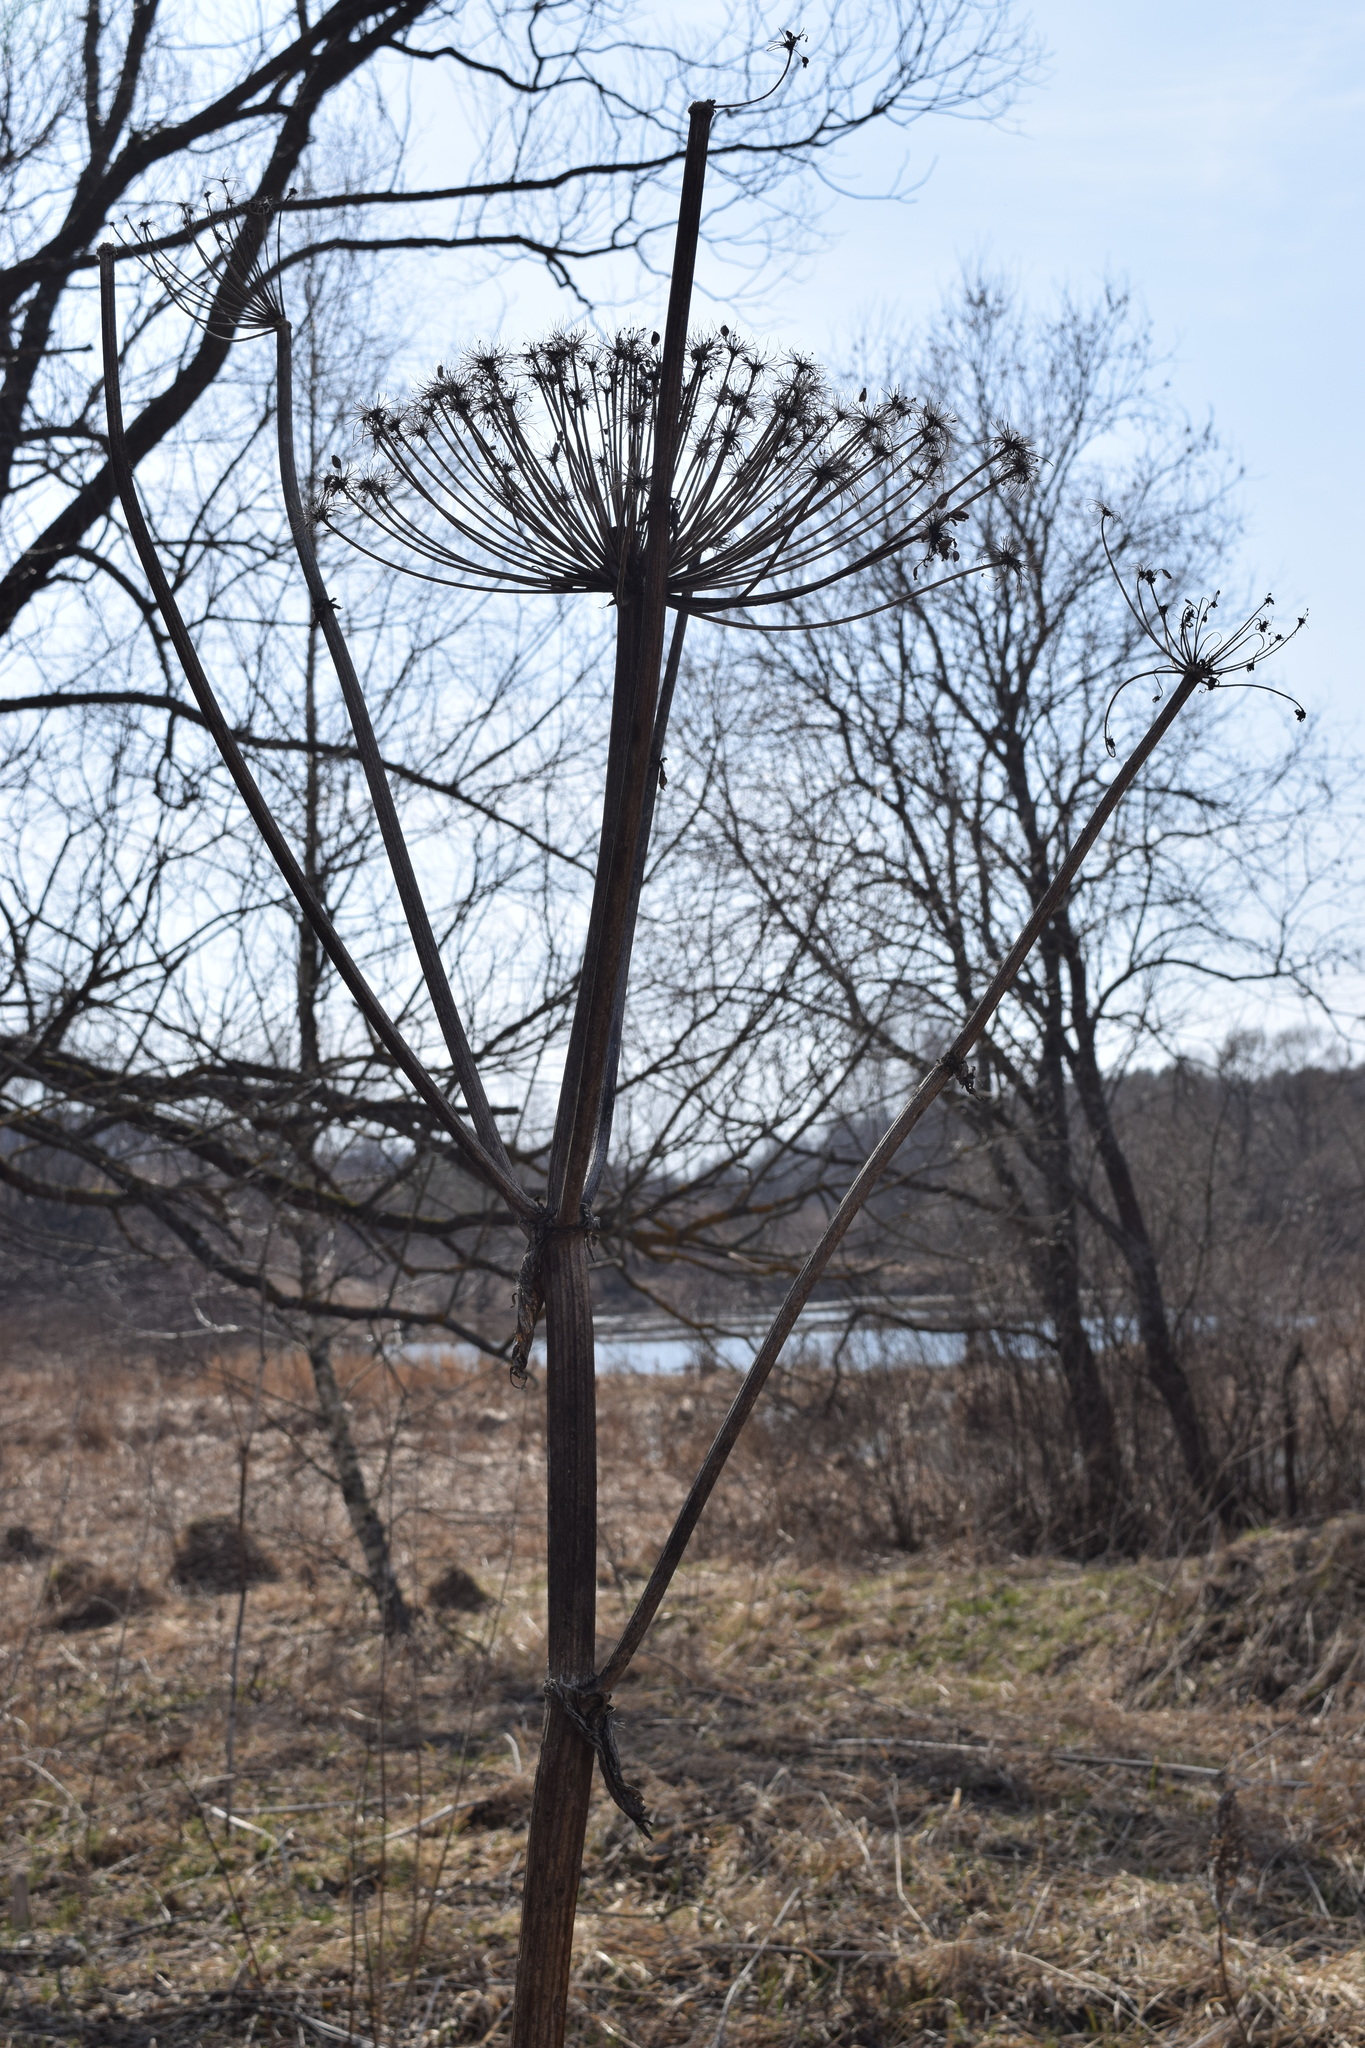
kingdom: Plantae
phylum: Tracheophyta
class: Magnoliopsida
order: Apiales
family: Apiaceae
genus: Heracleum
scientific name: Heracleum sosnowskyi
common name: Sosnowsky's hogweed
